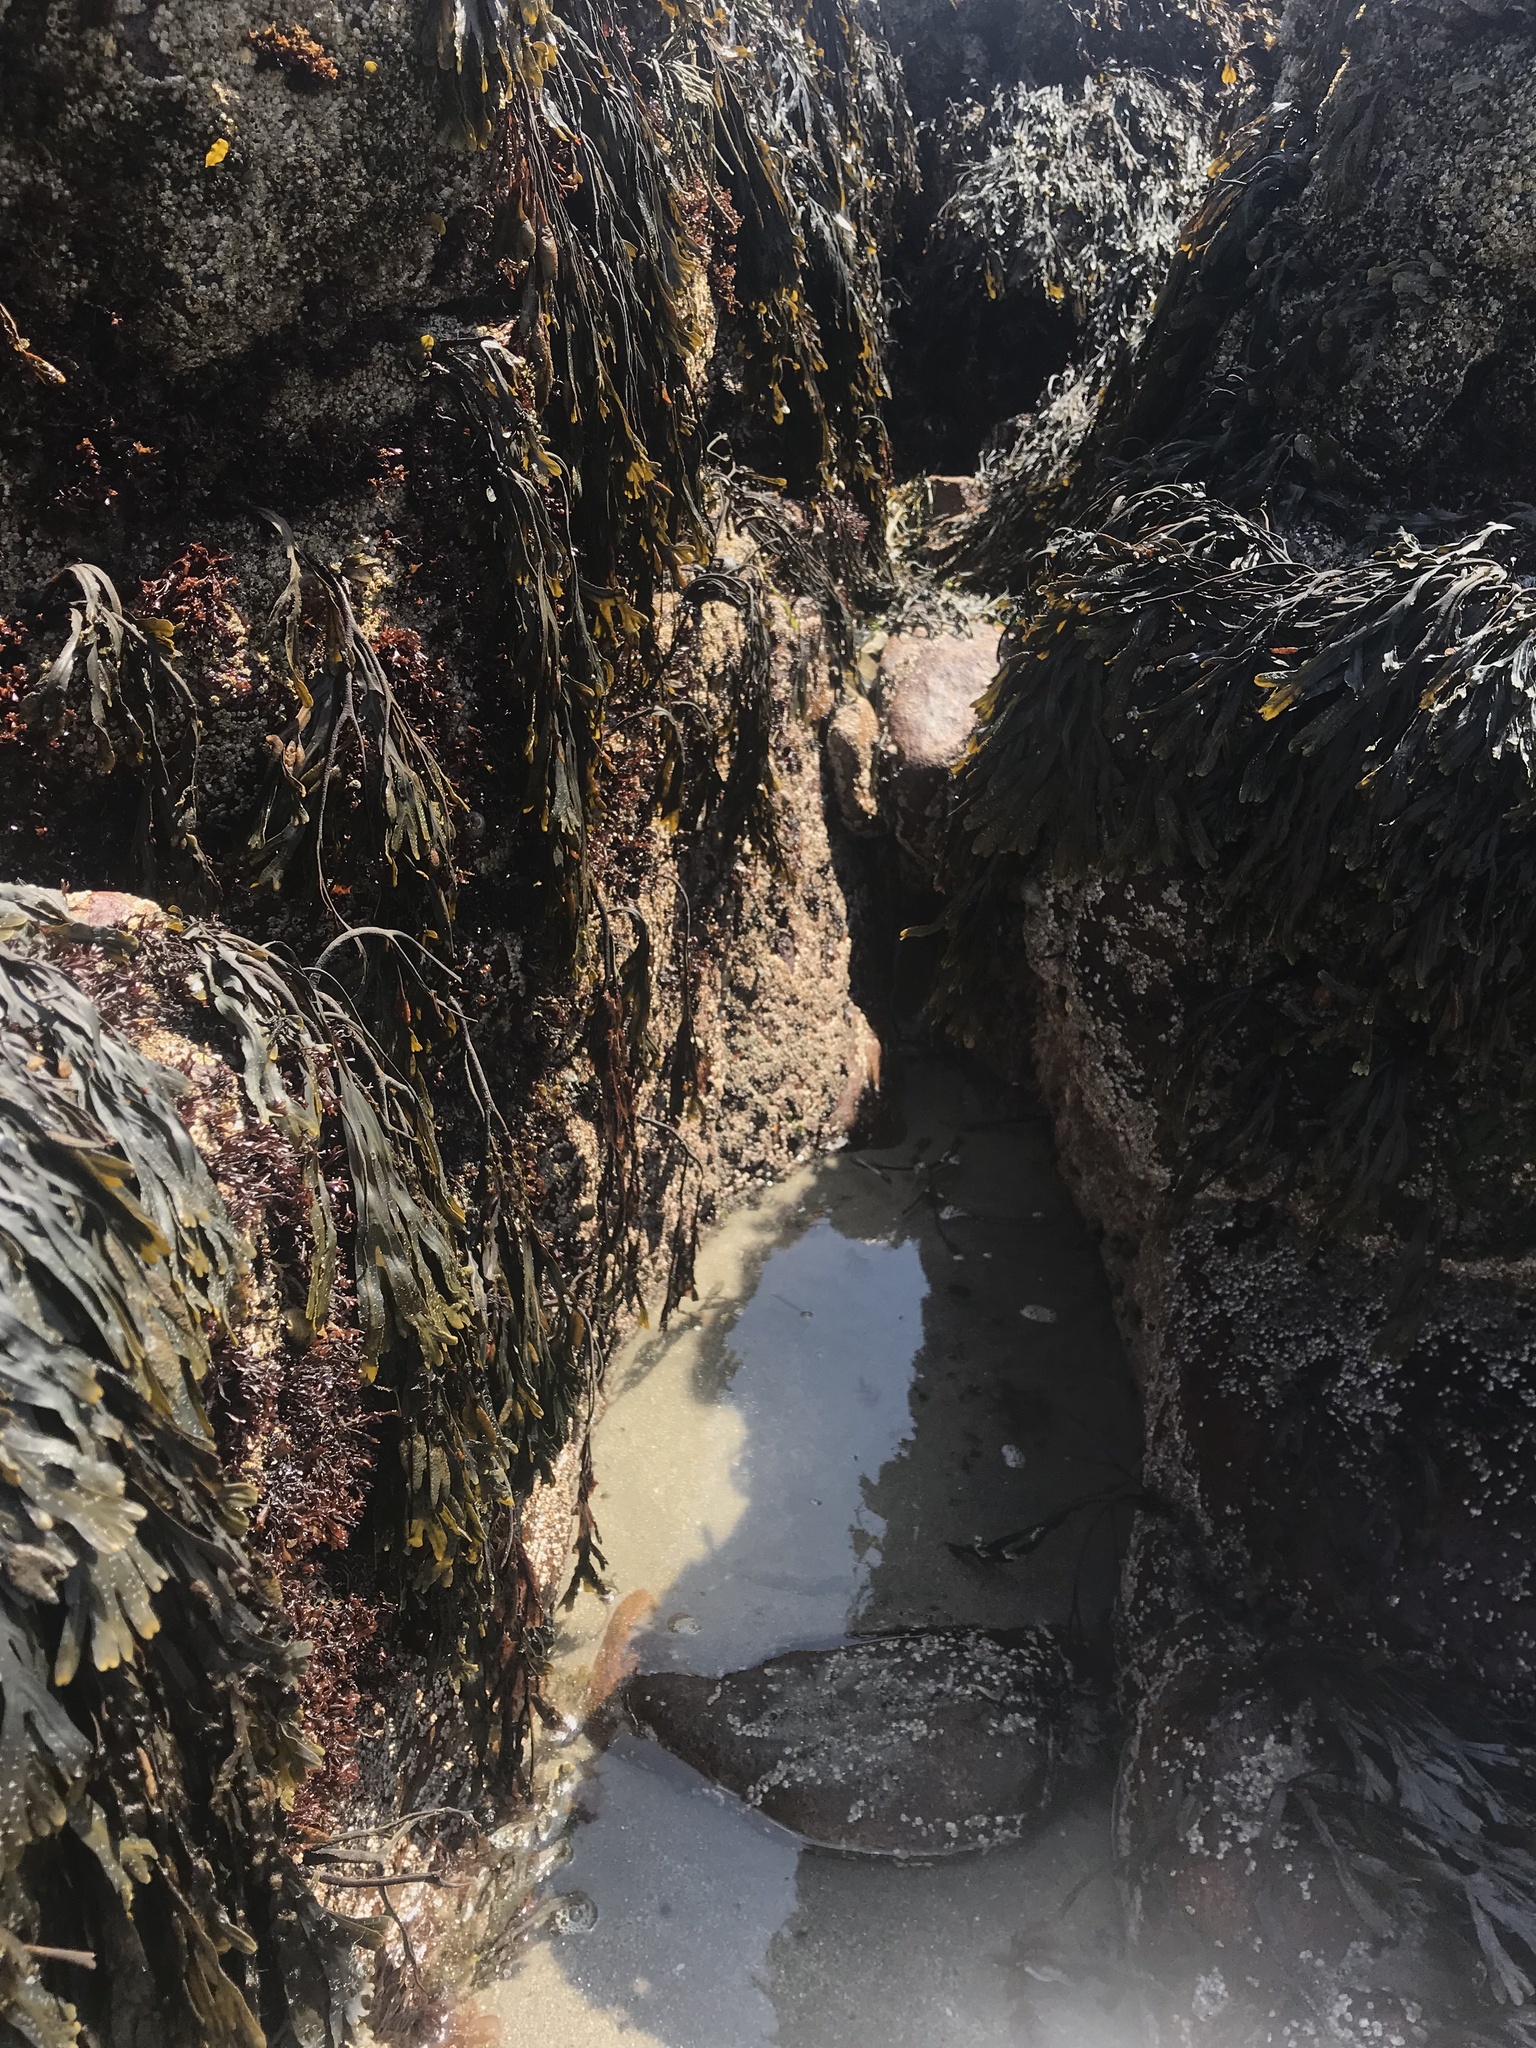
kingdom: Animalia
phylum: Mollusca
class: Gastropoda
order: Littorinimorpha
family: Littorinidae
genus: Littorina
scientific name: Littorina littorea
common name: Common periwinkle
